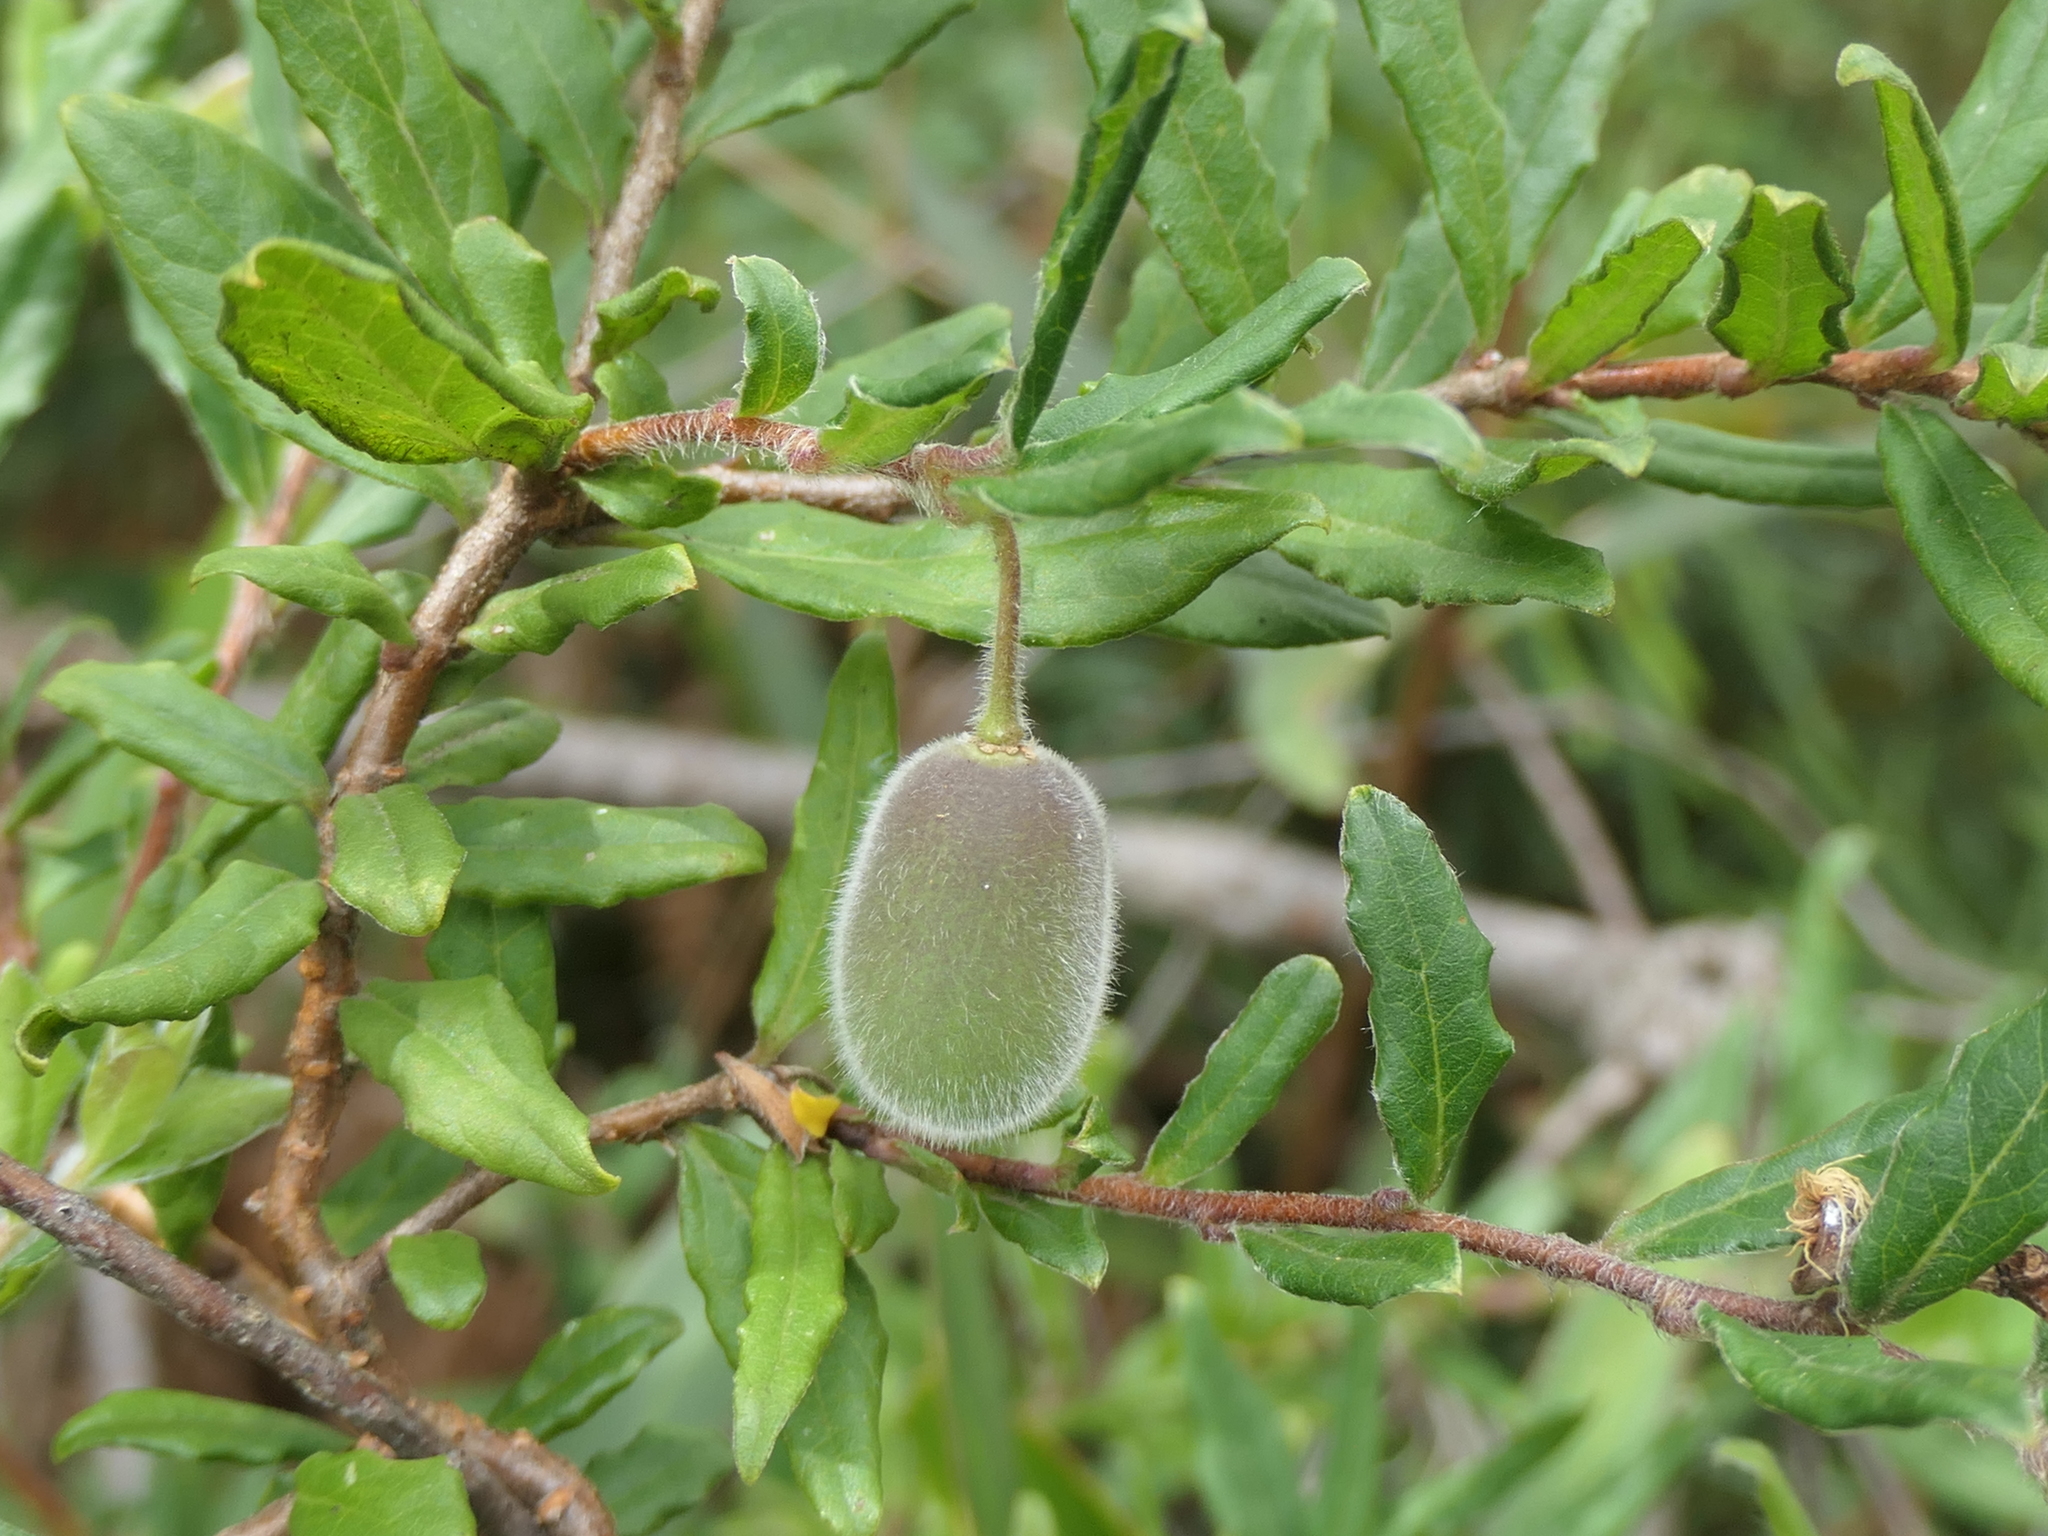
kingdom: Plantae
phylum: Tracheophyta
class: Magnoliopsida
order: Apiales
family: Pittosporaceae
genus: Billardiera
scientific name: Billardiera scandens
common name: Apple-berry
